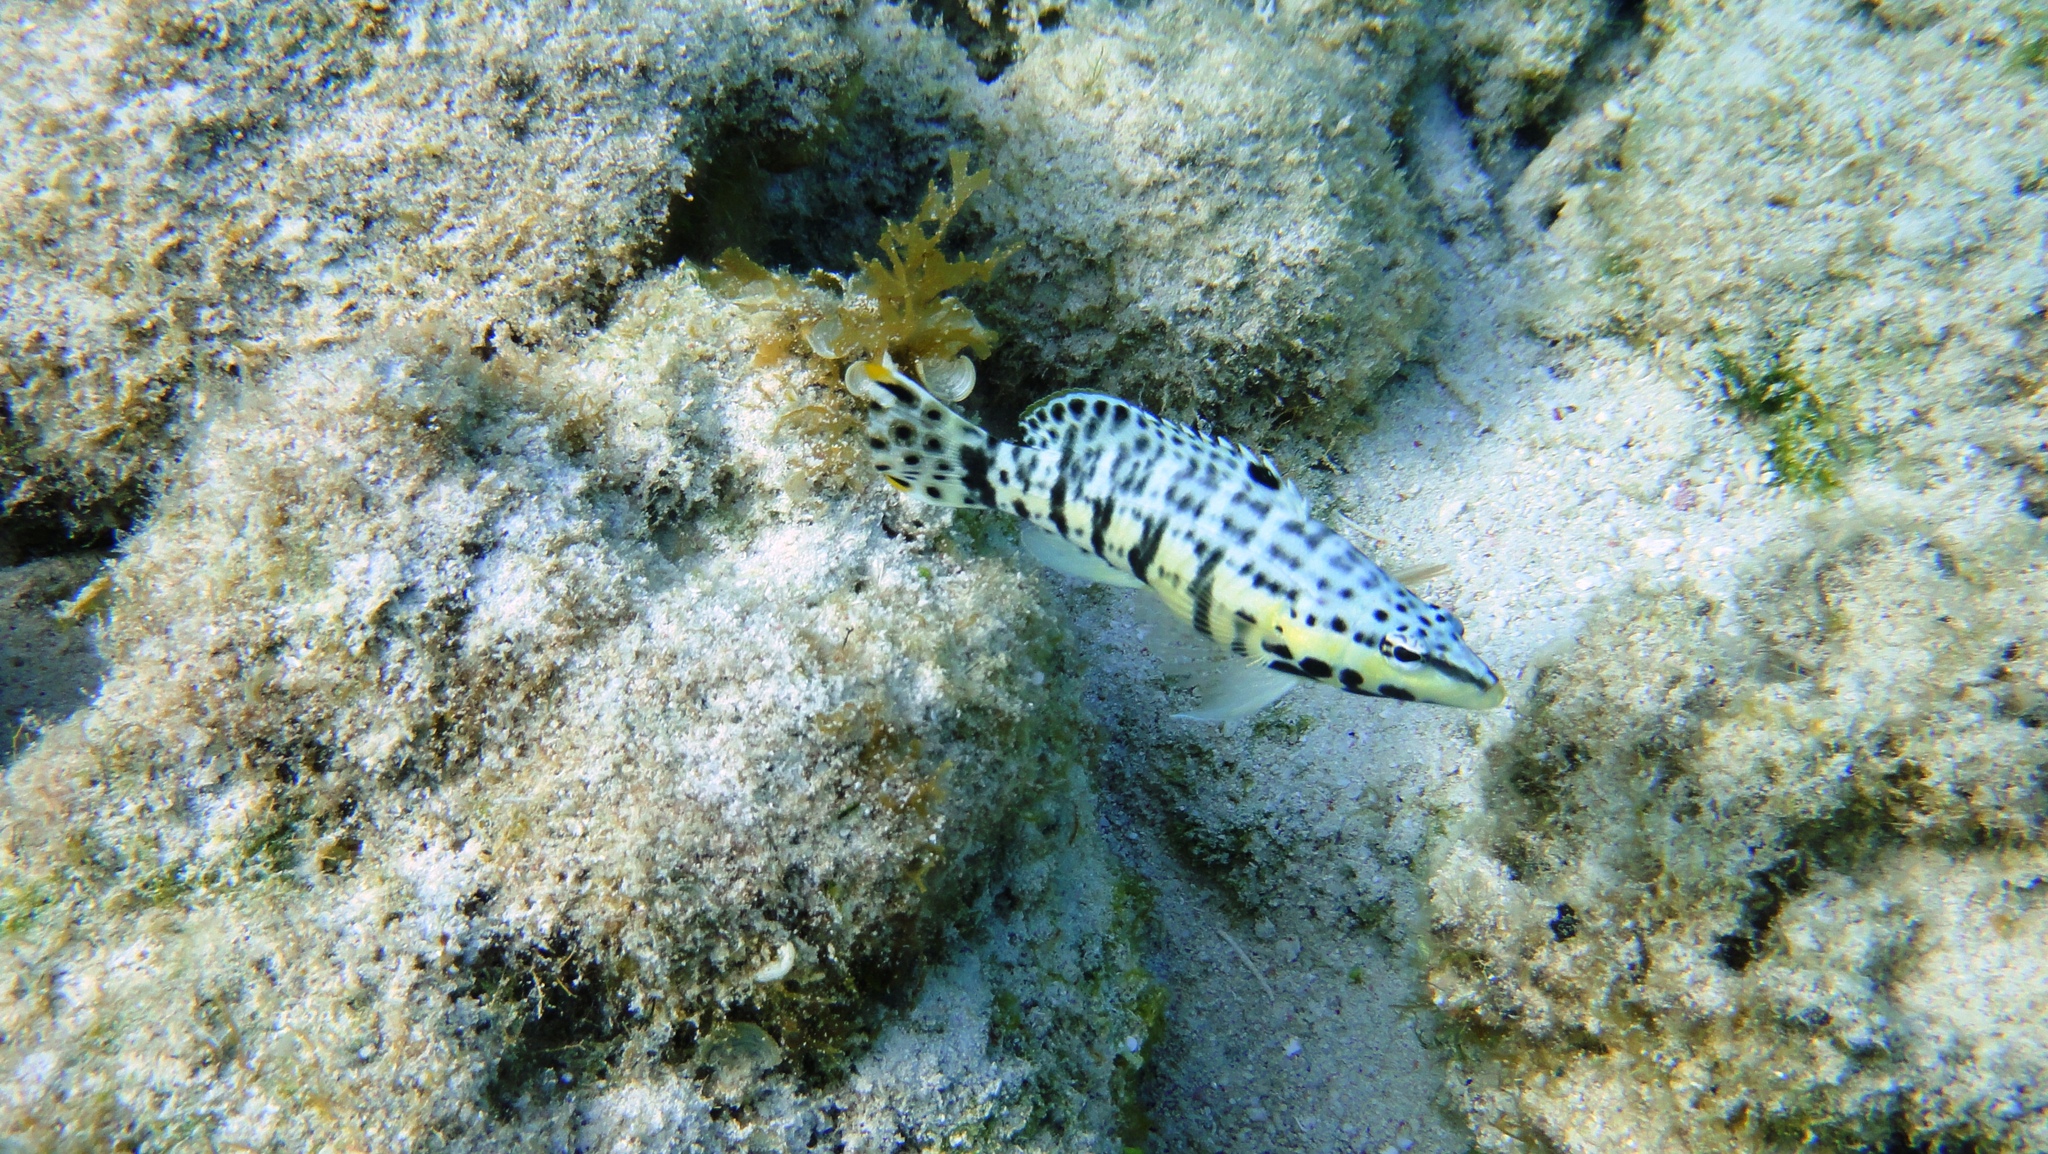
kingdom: Animalia
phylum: Chordata
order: Perciformes
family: Serranidae
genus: Serranus
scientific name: Serranus tigrinus
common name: Harlequin bass
